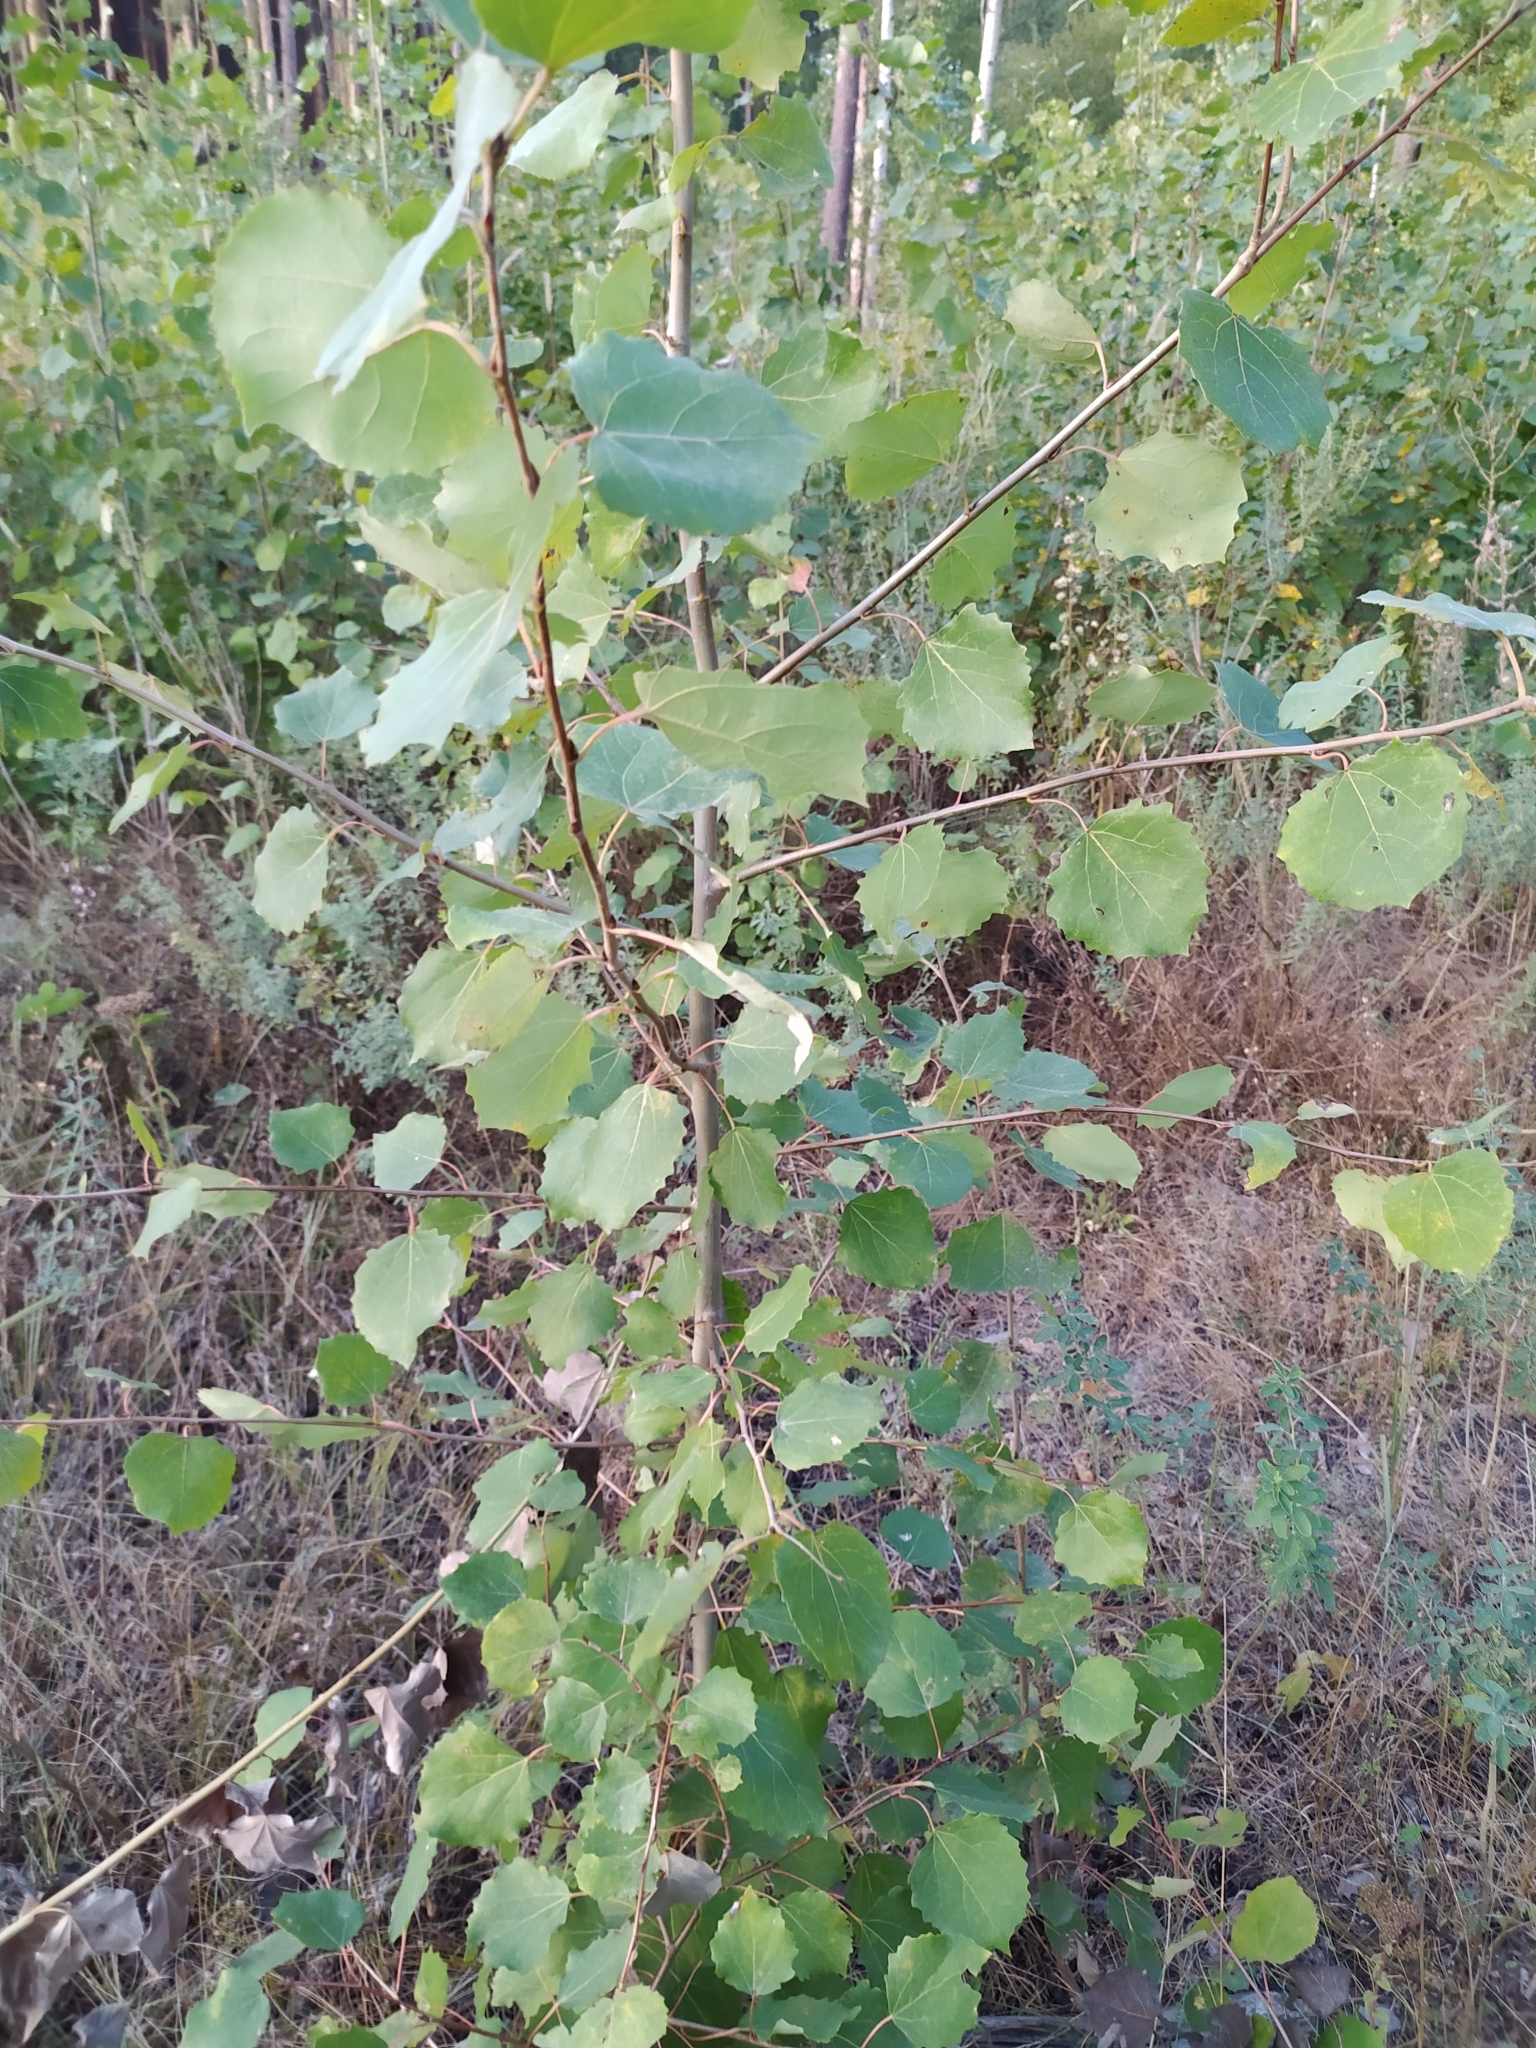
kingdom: Plantae
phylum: Tracheophyta
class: Magnoliopsida
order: Malpighiales
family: Salicaceae
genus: Populus
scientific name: Populus tremula
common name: European aspen
